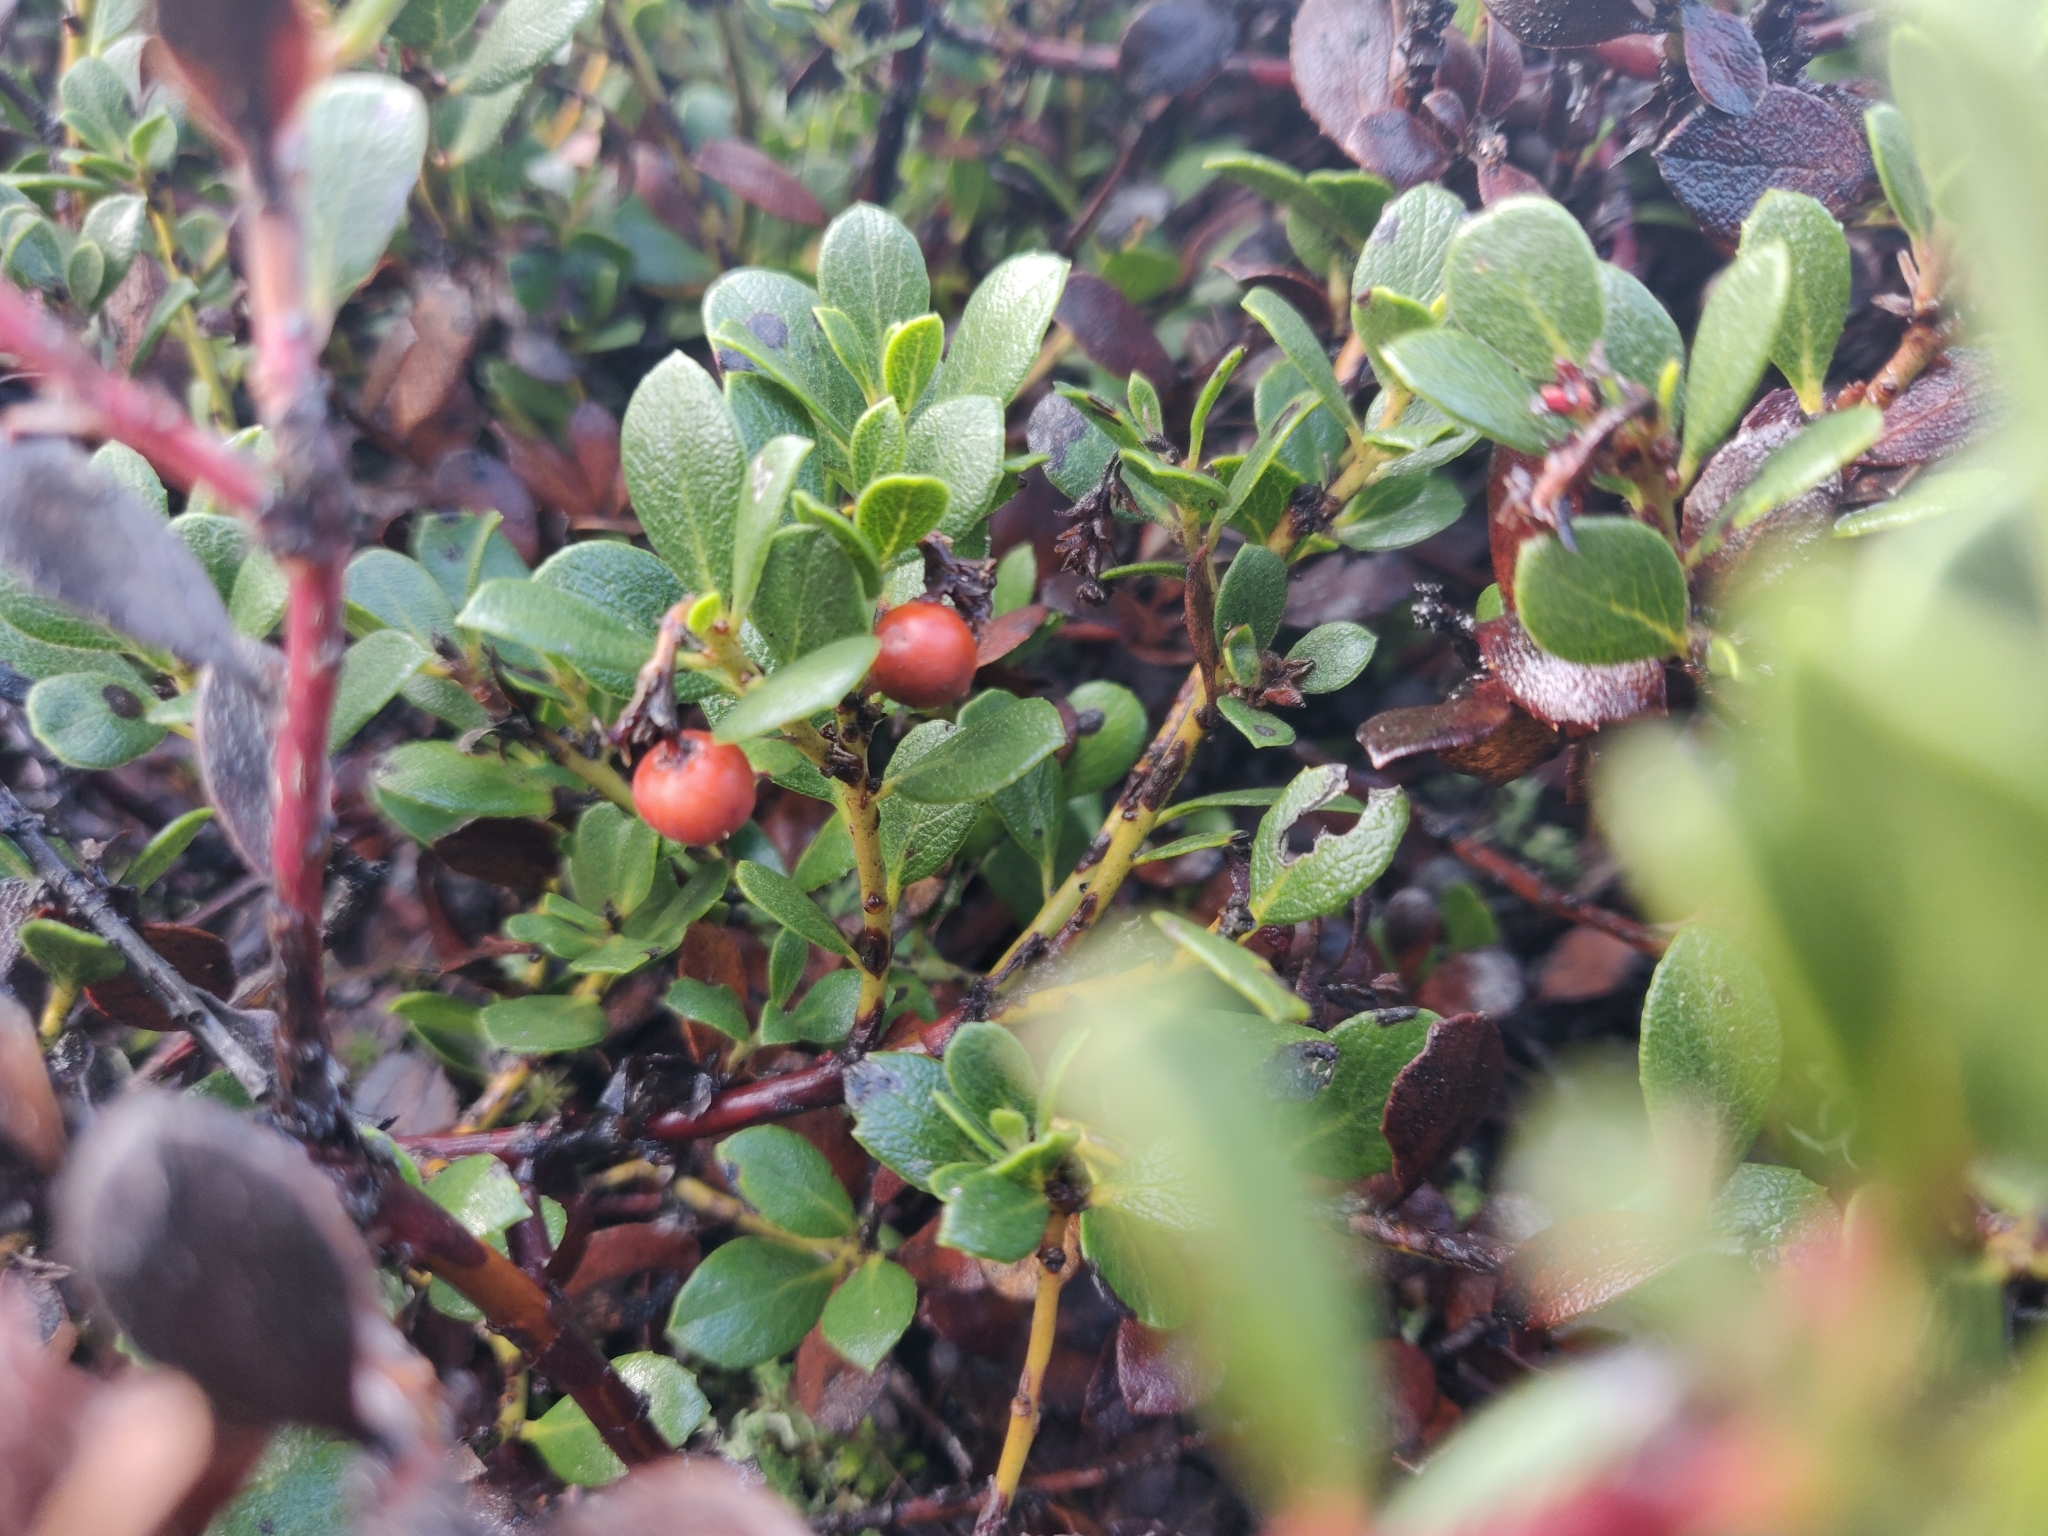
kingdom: Plantae
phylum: Tracheophyta
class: Magnoliopsida
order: Ericales
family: Ericaceae
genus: Arctostaphylos
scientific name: Arctostaphylos pacifica
